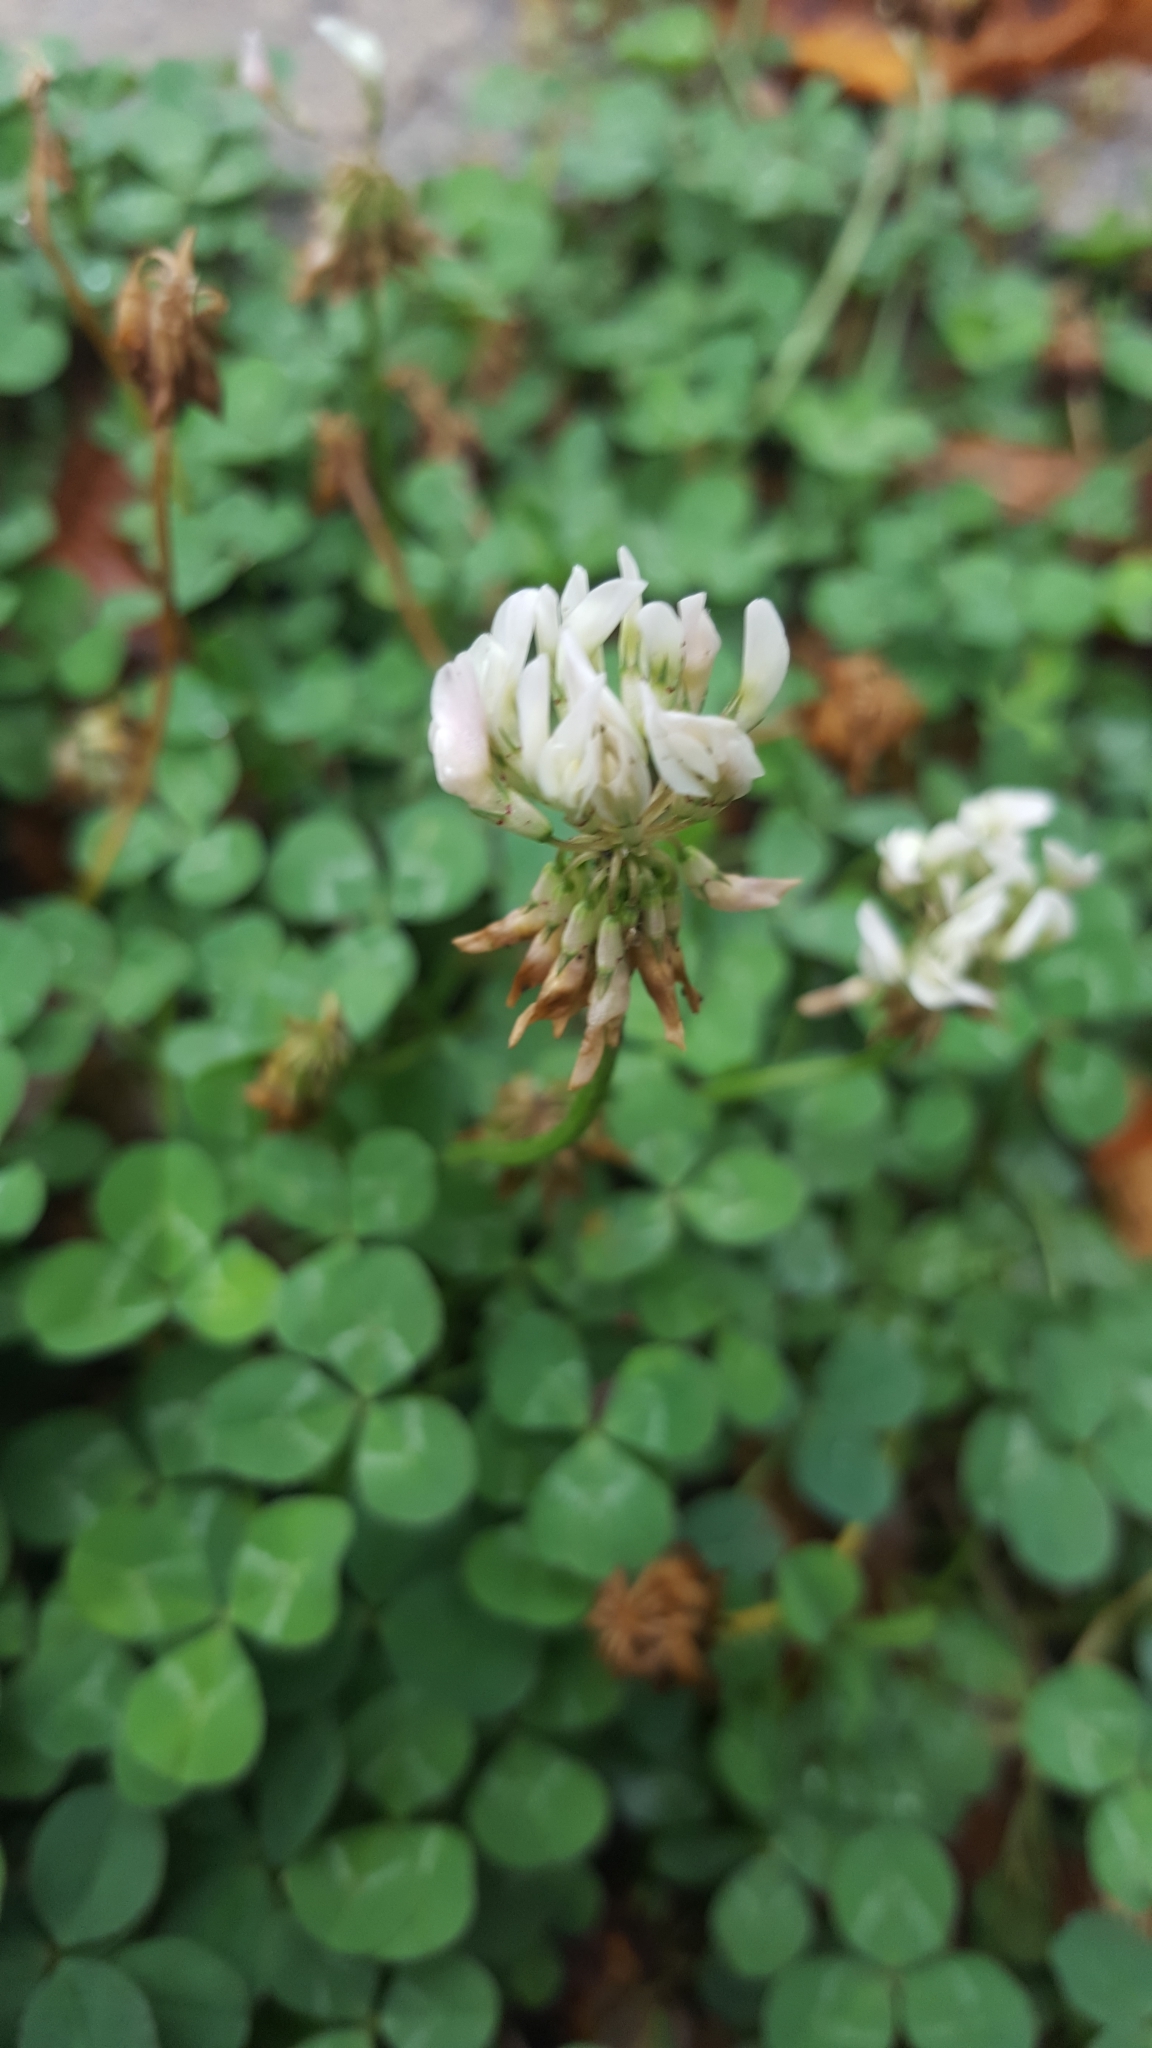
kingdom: Plantae
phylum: Tracheophyta
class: Magnoliopsida
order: Fabales
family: Fabaceae
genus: Trifolium
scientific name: Trifolium repens
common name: White clover
